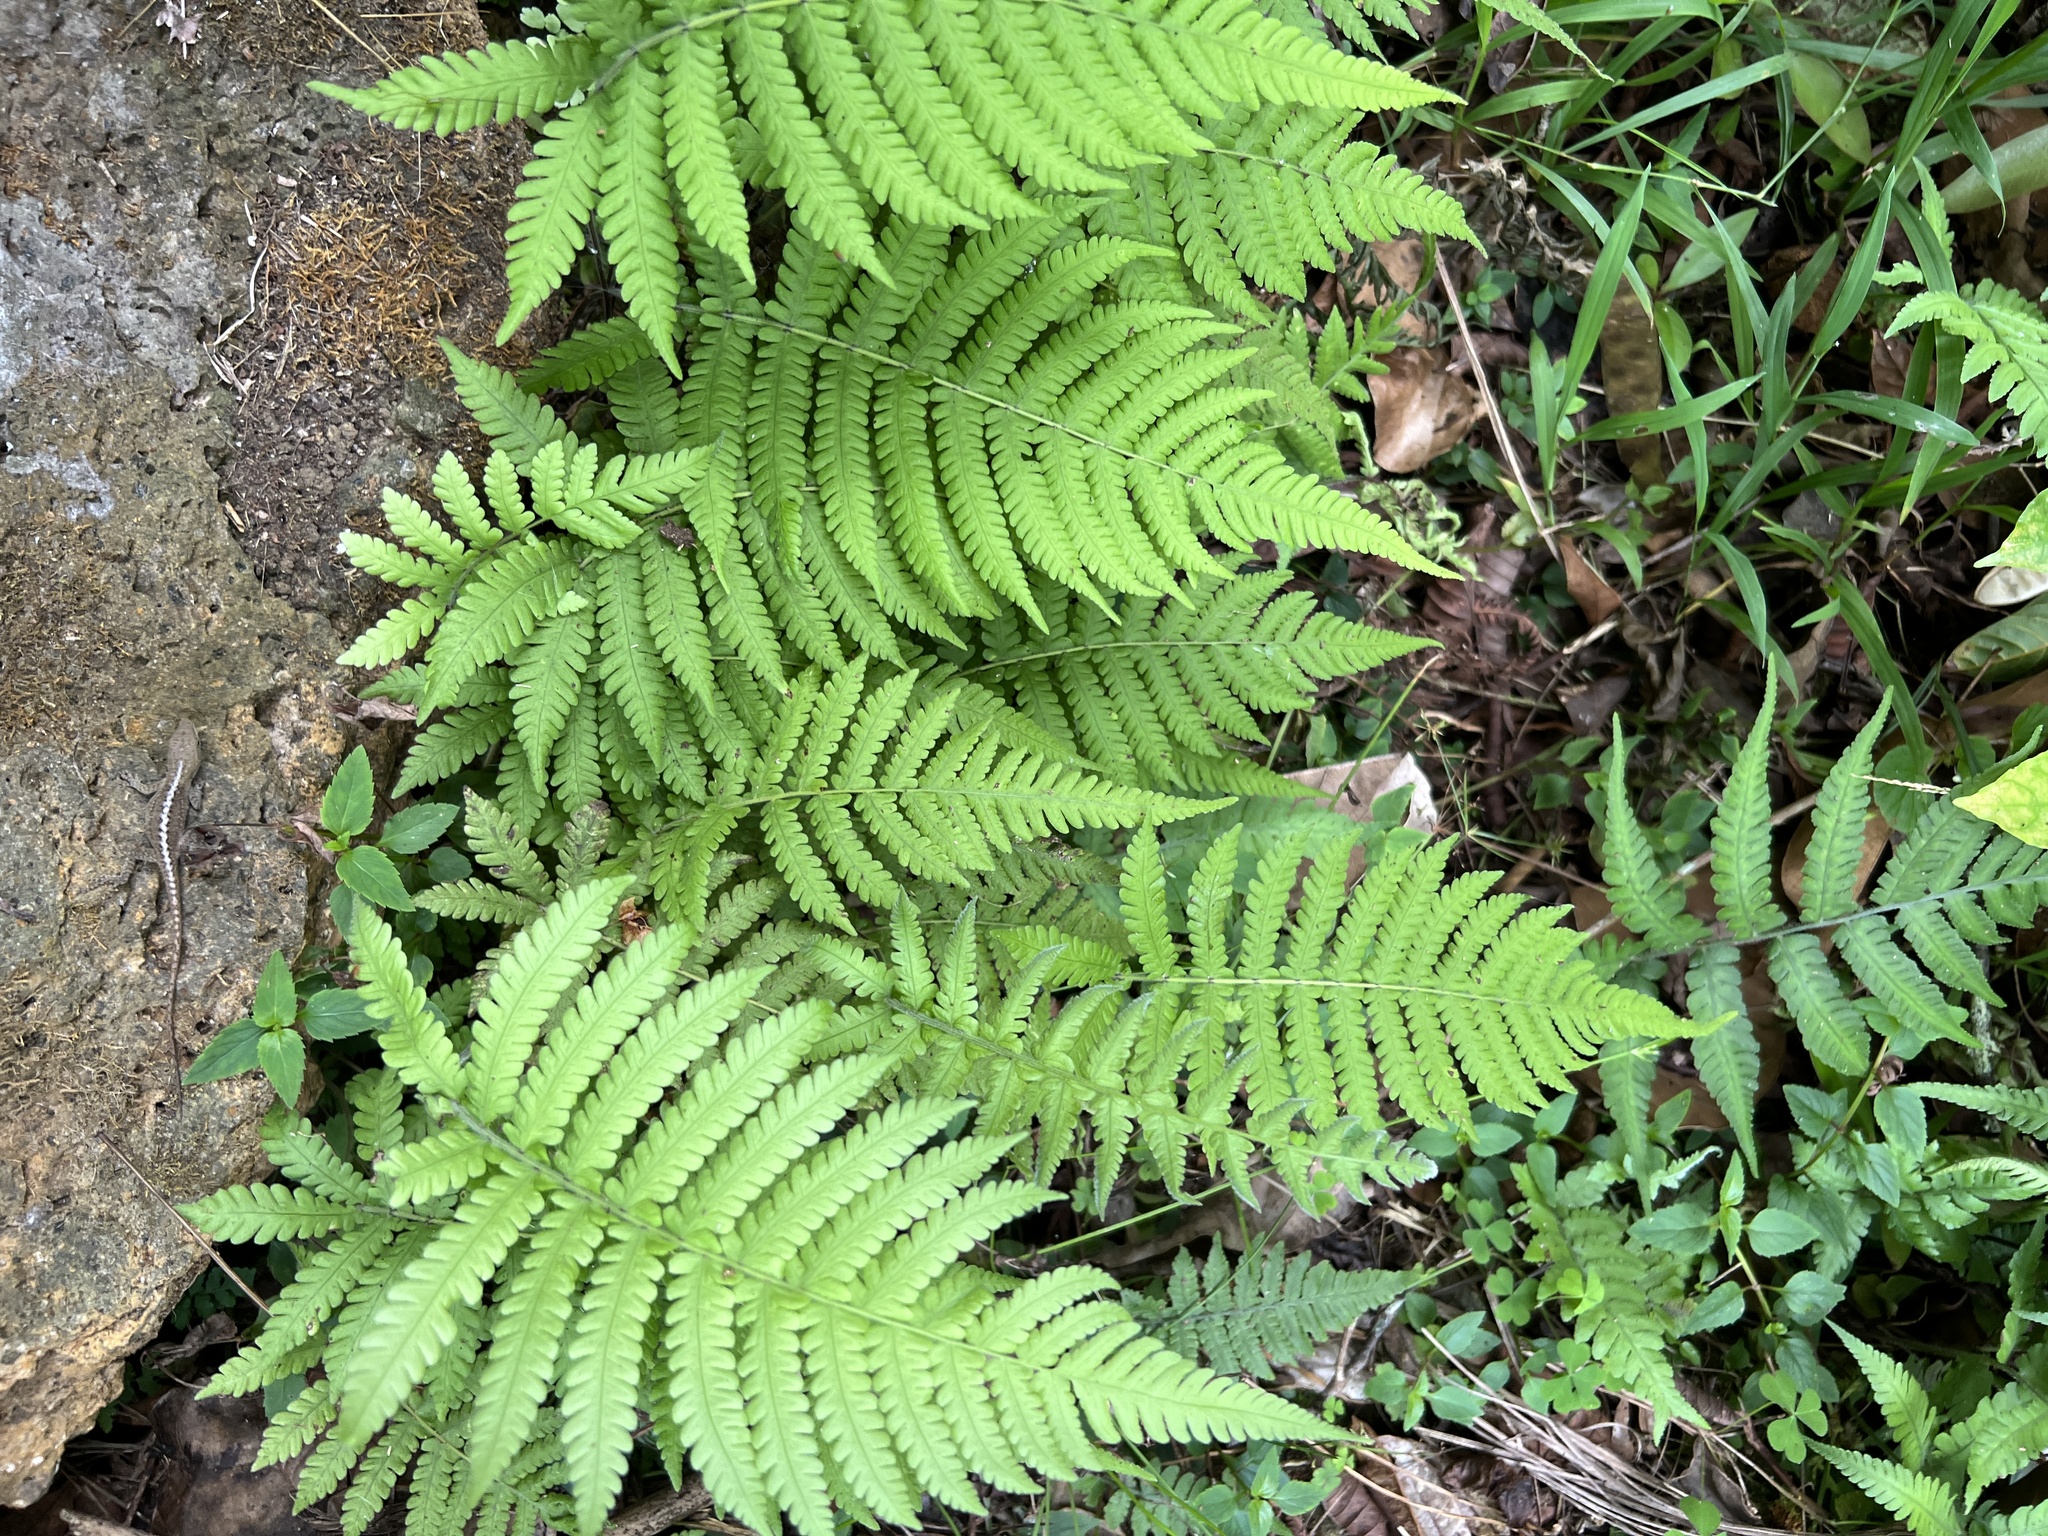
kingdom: Plantae
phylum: Tracheophyta
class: Polypodiopsida
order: Polypodiales
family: Thelypteridaceae
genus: Christella
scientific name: Christella parasitica
